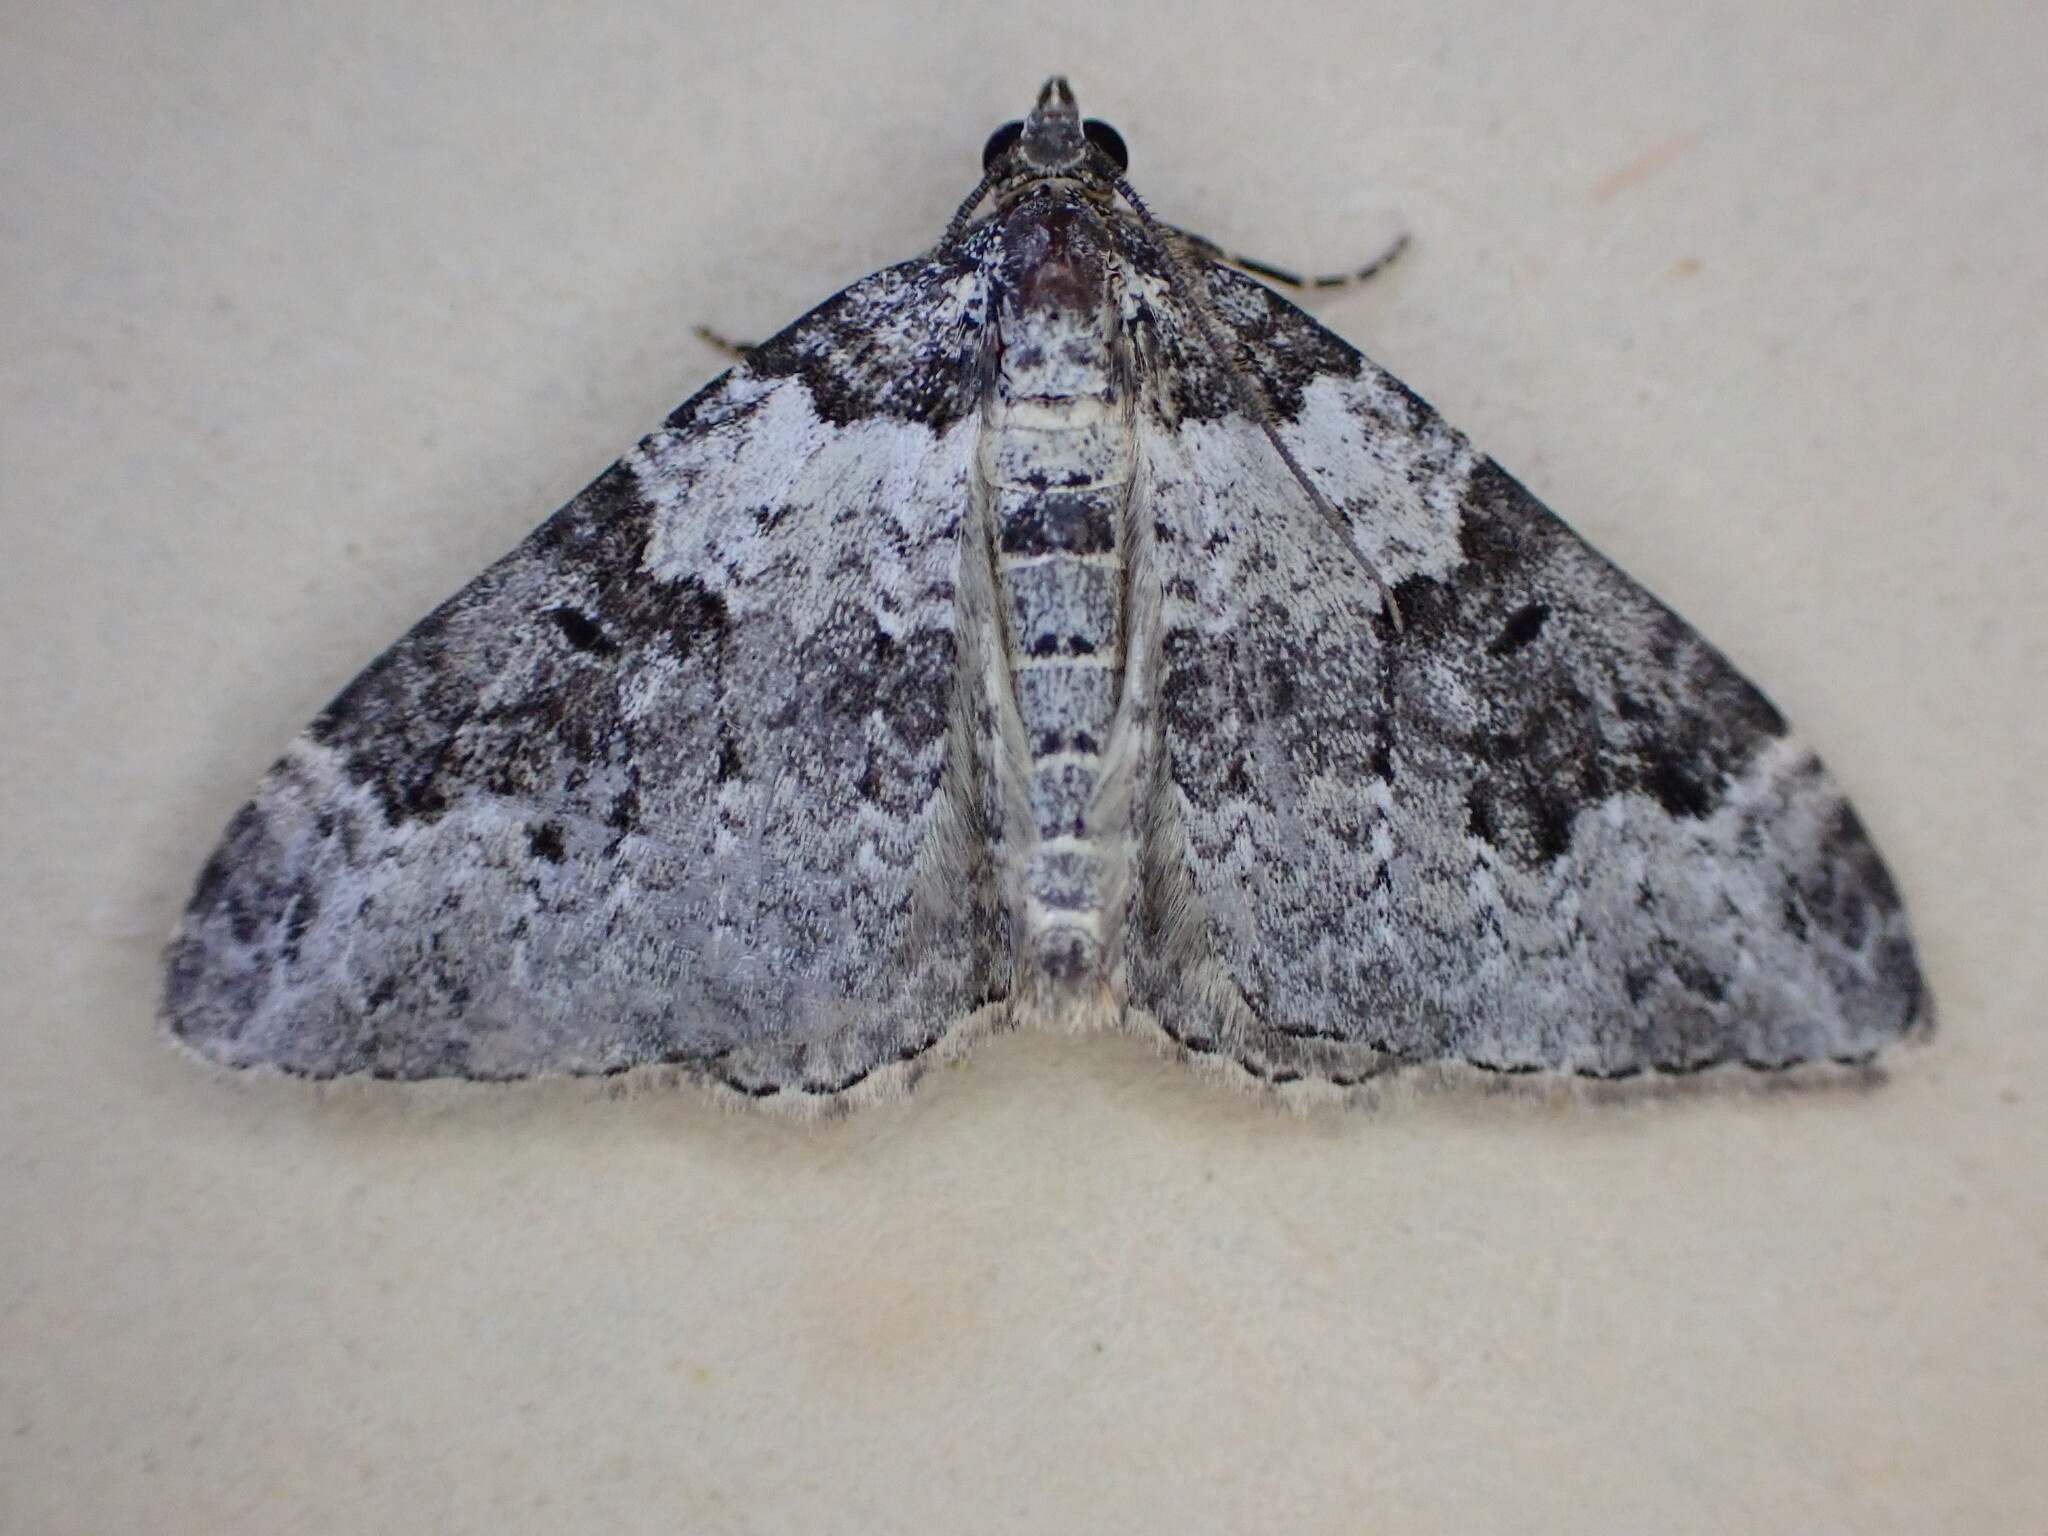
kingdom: Animalia
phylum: Arthropoda
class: Insecta
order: Lepidoptera
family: Geometridae
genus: Xanthorhoe
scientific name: Xanthorhoe fluctuata
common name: Garden carpet
